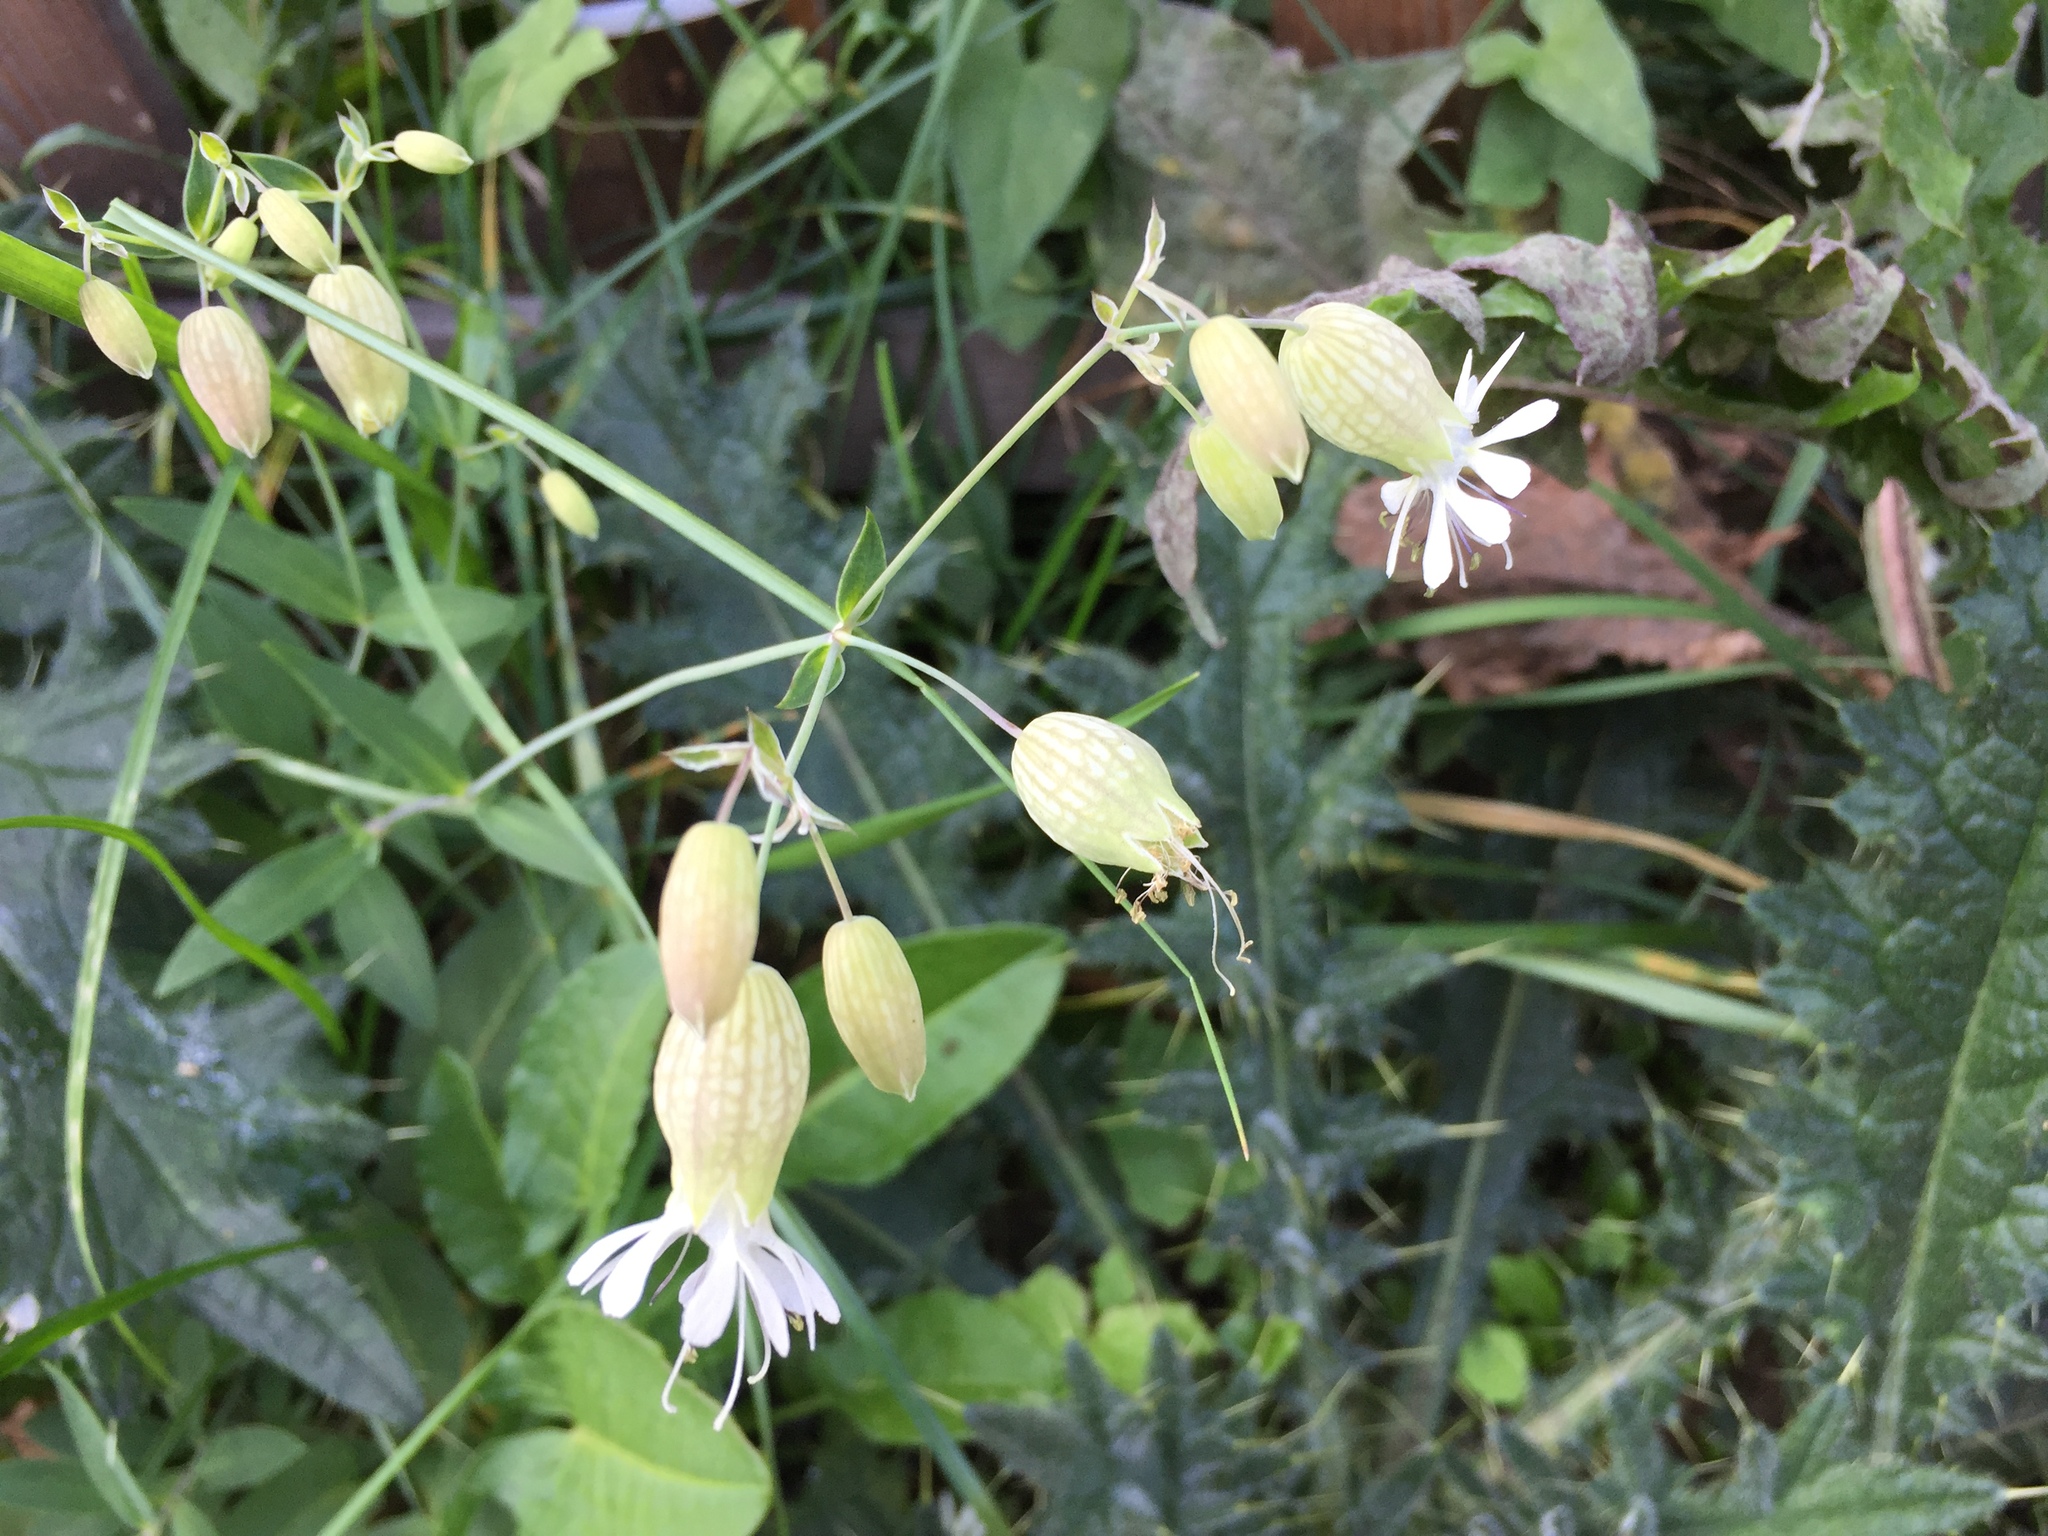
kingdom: Plantae
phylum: Tracheophyta
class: Magnoliopsida
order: Caryophyllales
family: Caryophyllaceae
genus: Silene
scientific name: Silene vulgaris
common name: Bladder campion
